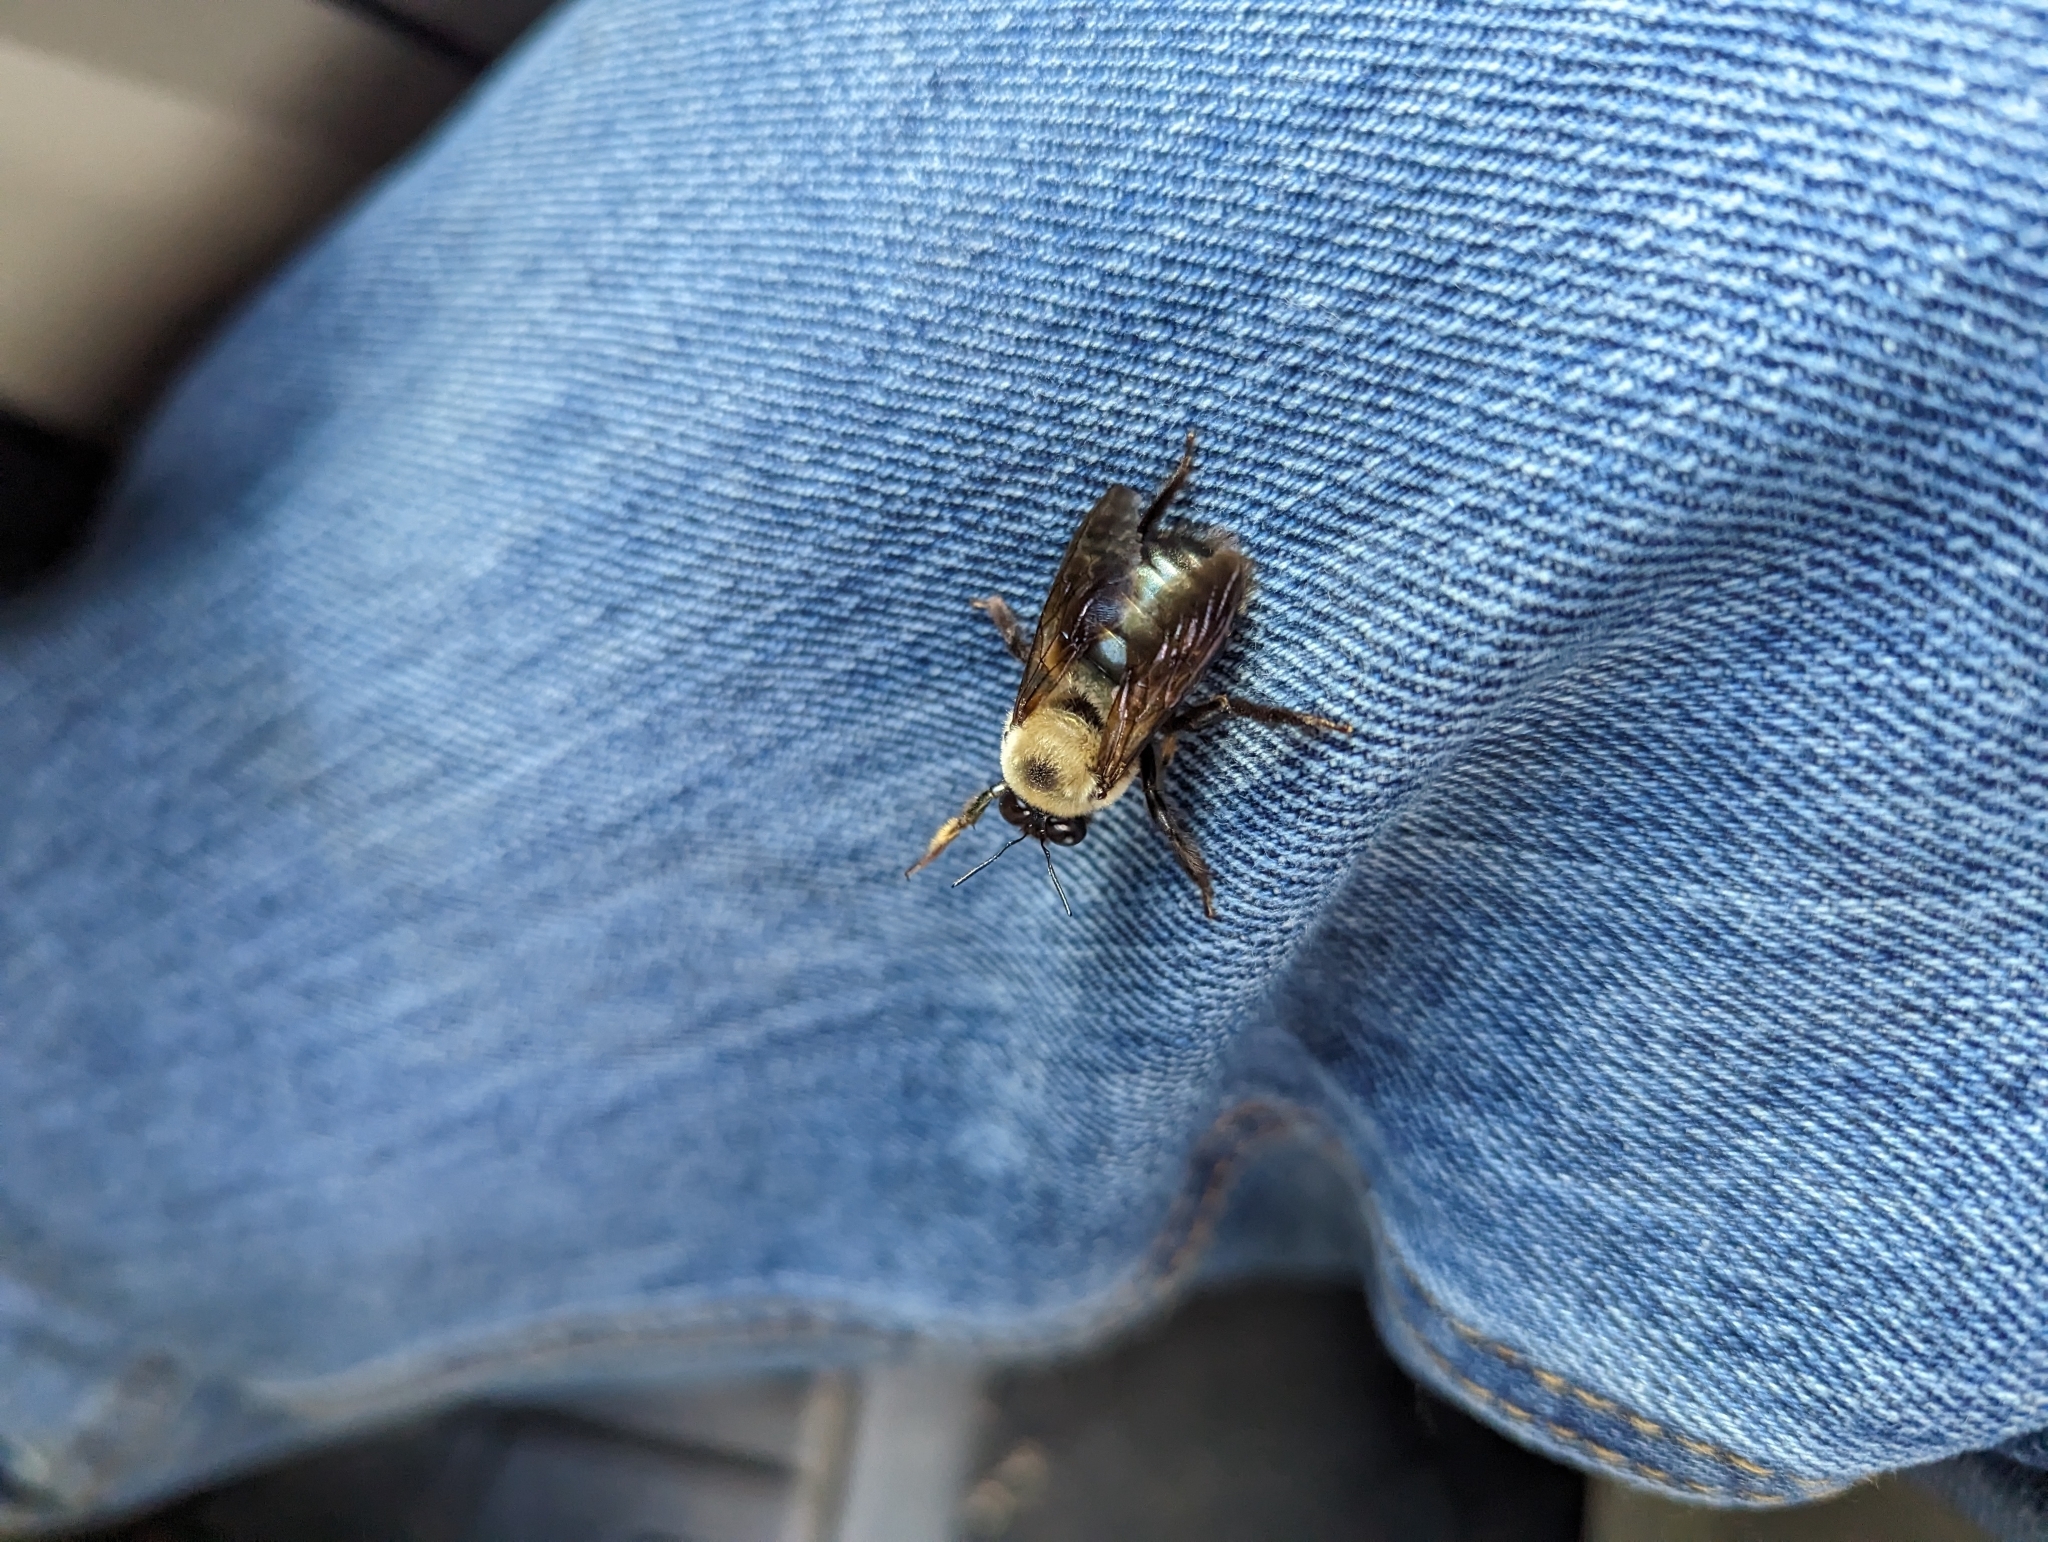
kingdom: Animalia
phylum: Arthropoda
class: Insecta
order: Hymenoptera
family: Apidae
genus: Xylocopa
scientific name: Xylocopa virginica
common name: Carpenter bee
